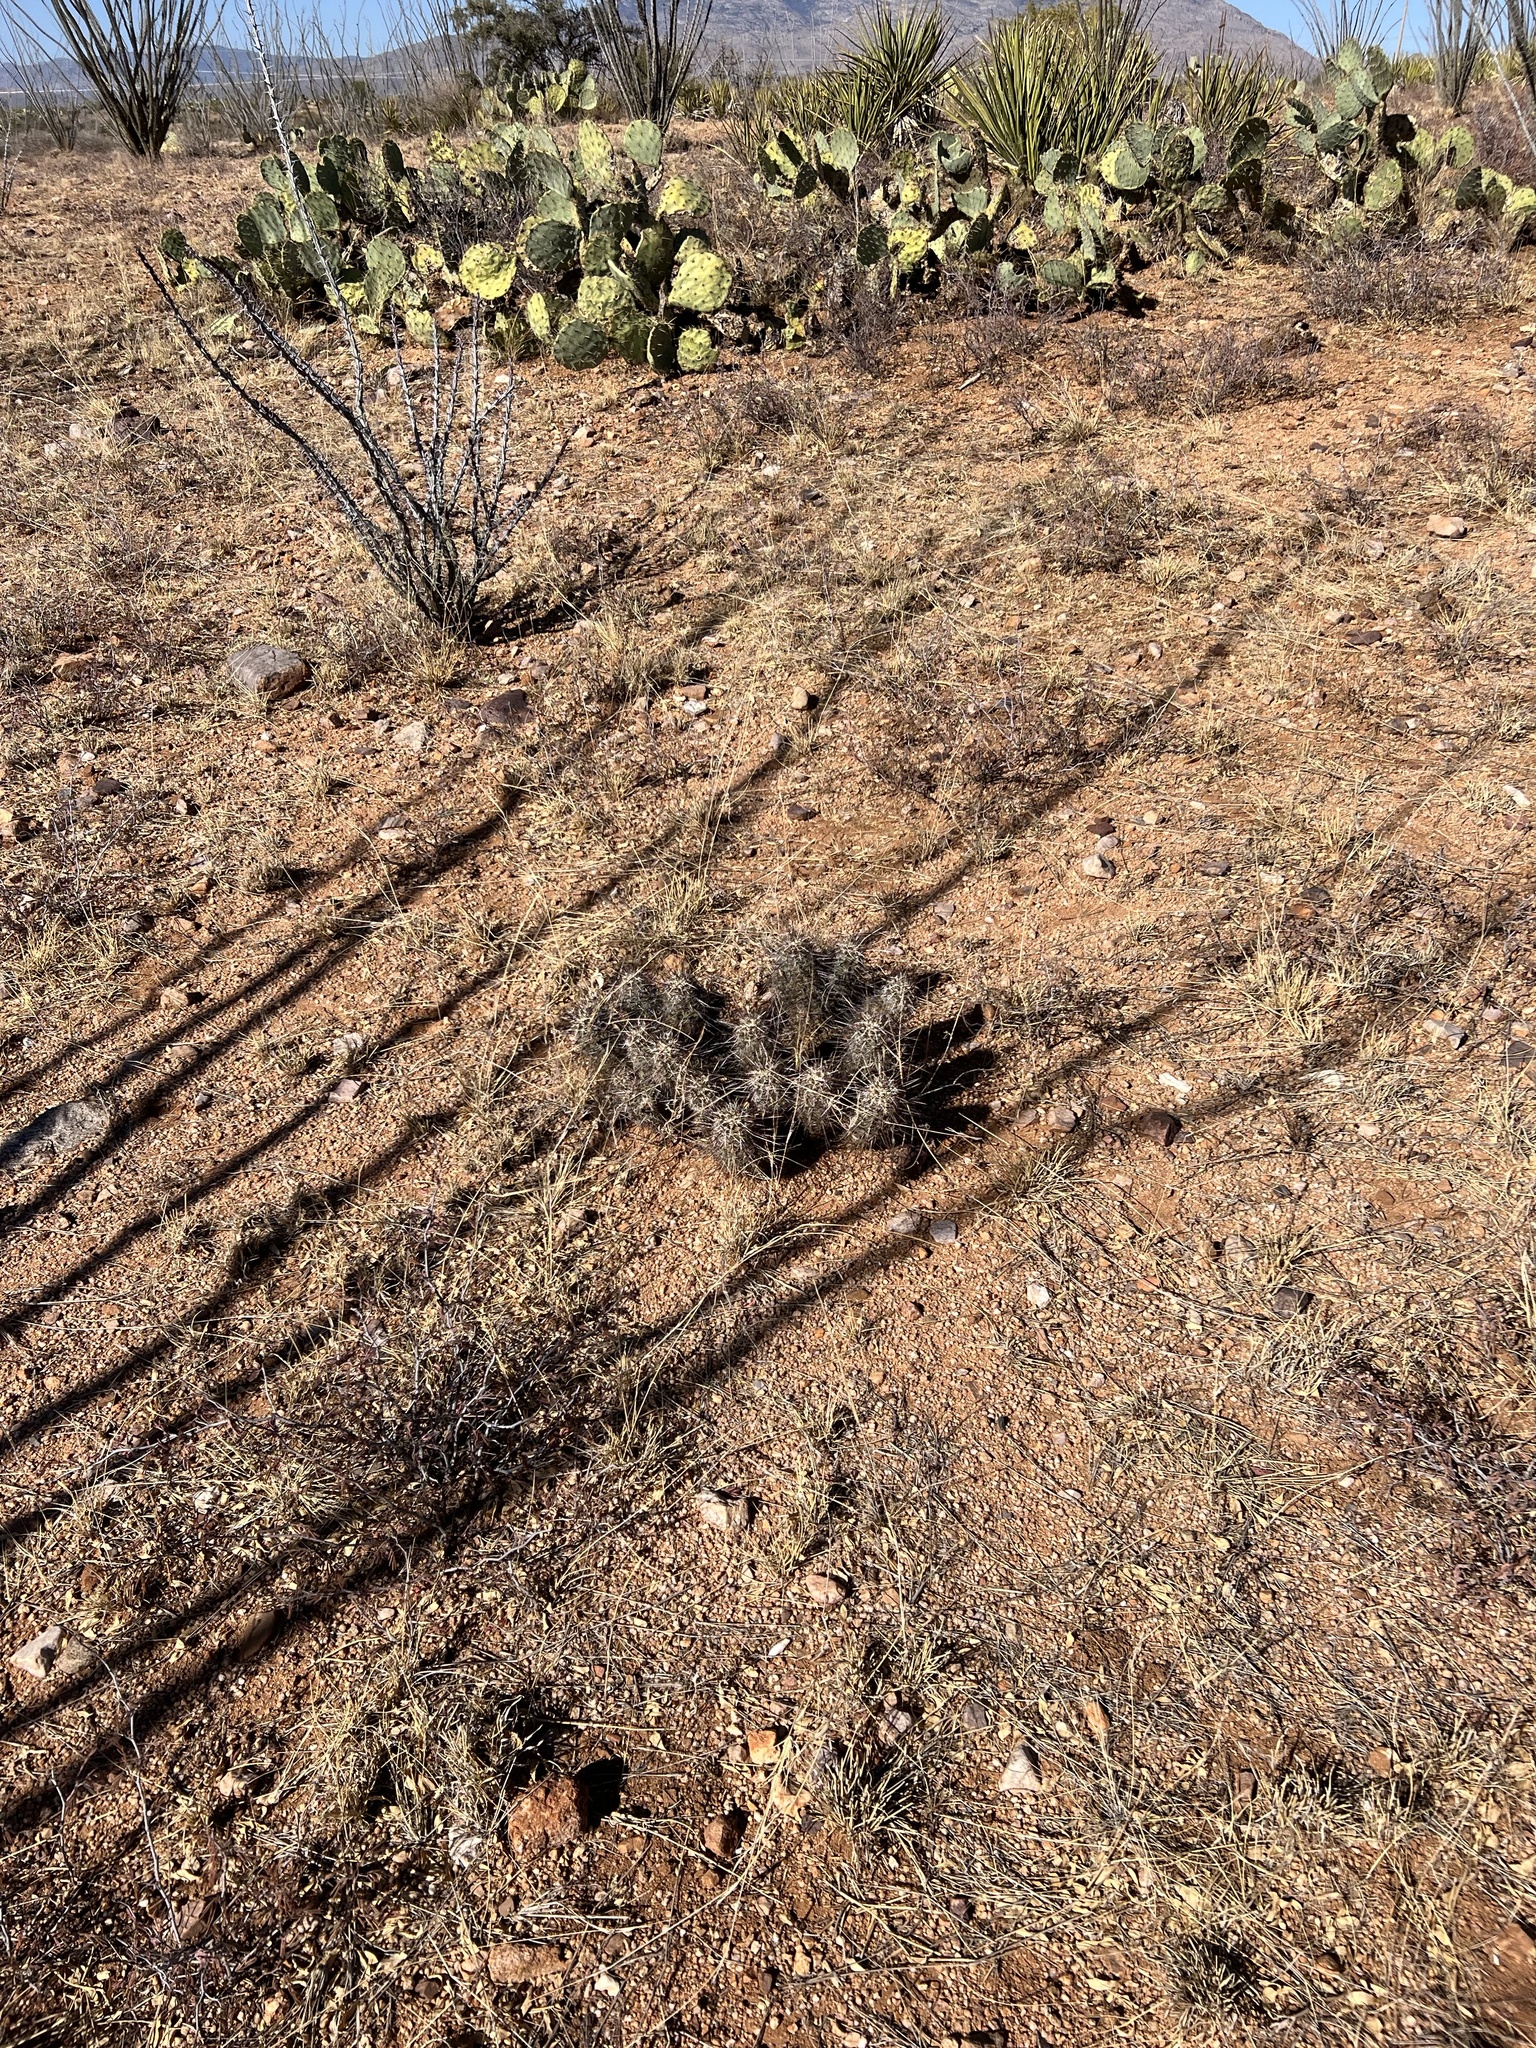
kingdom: Plantae
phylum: Tracheophyta
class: Magnoliopsida
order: Caryophyllales
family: Cactaceae
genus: Echinocereus
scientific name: Echinocereus fasciculatus
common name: Bundle hedgehog
